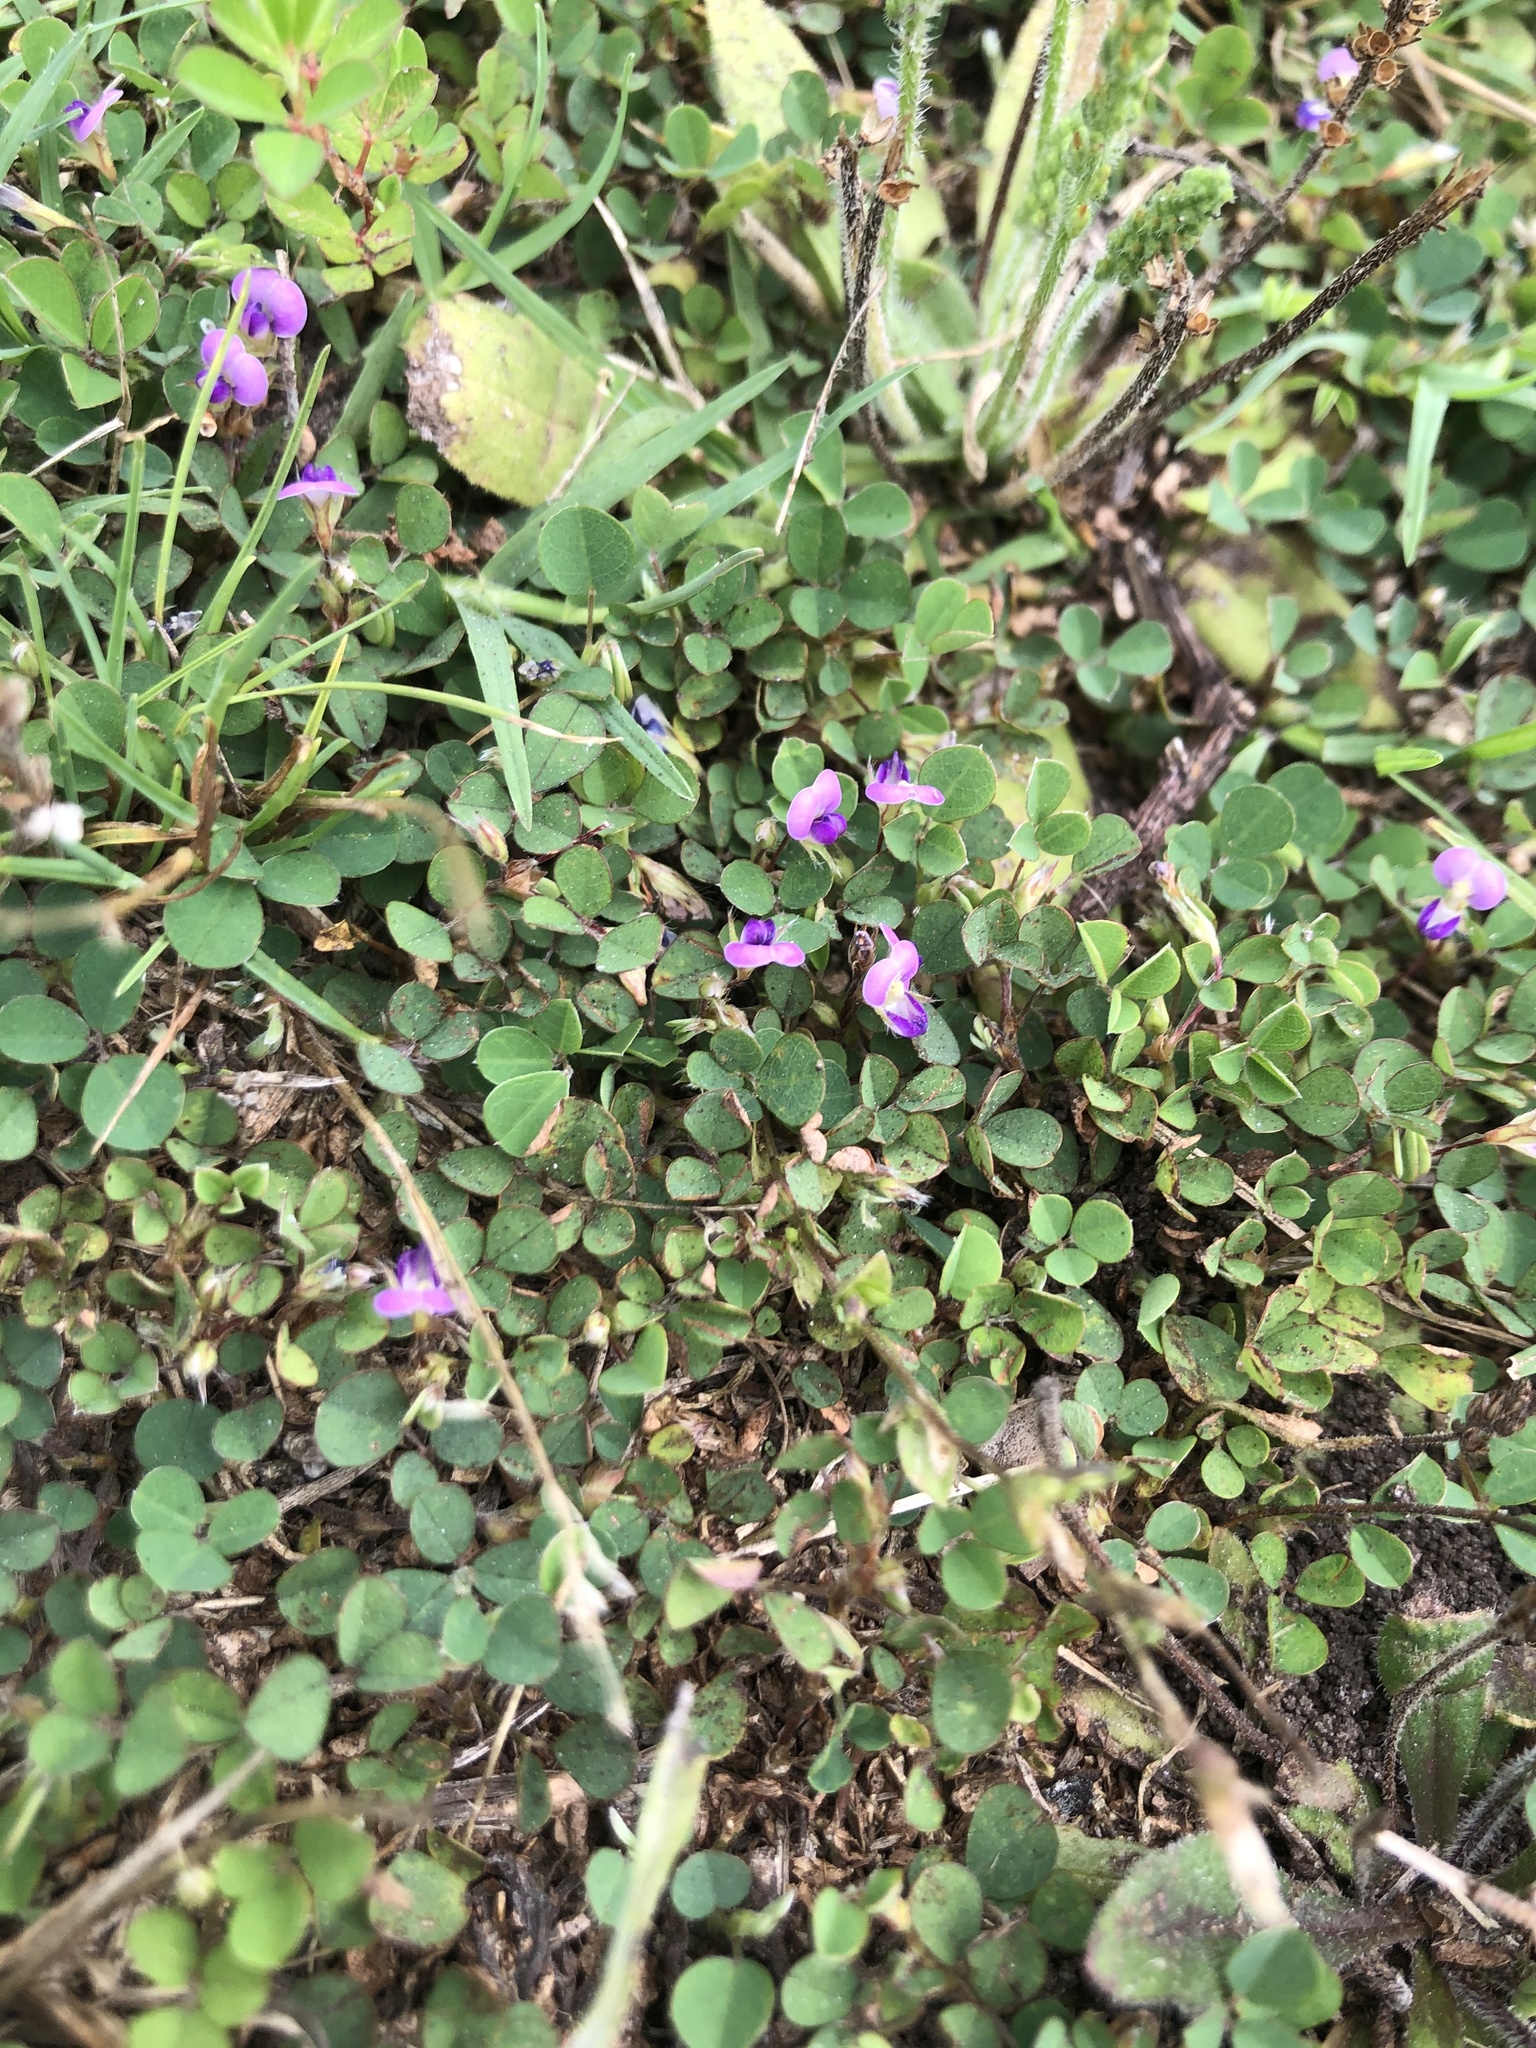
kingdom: Plantae
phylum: Tracheophyta
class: Magnoliopsida
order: Fabales
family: Fabaceae
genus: Grona
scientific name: Grona triflora
